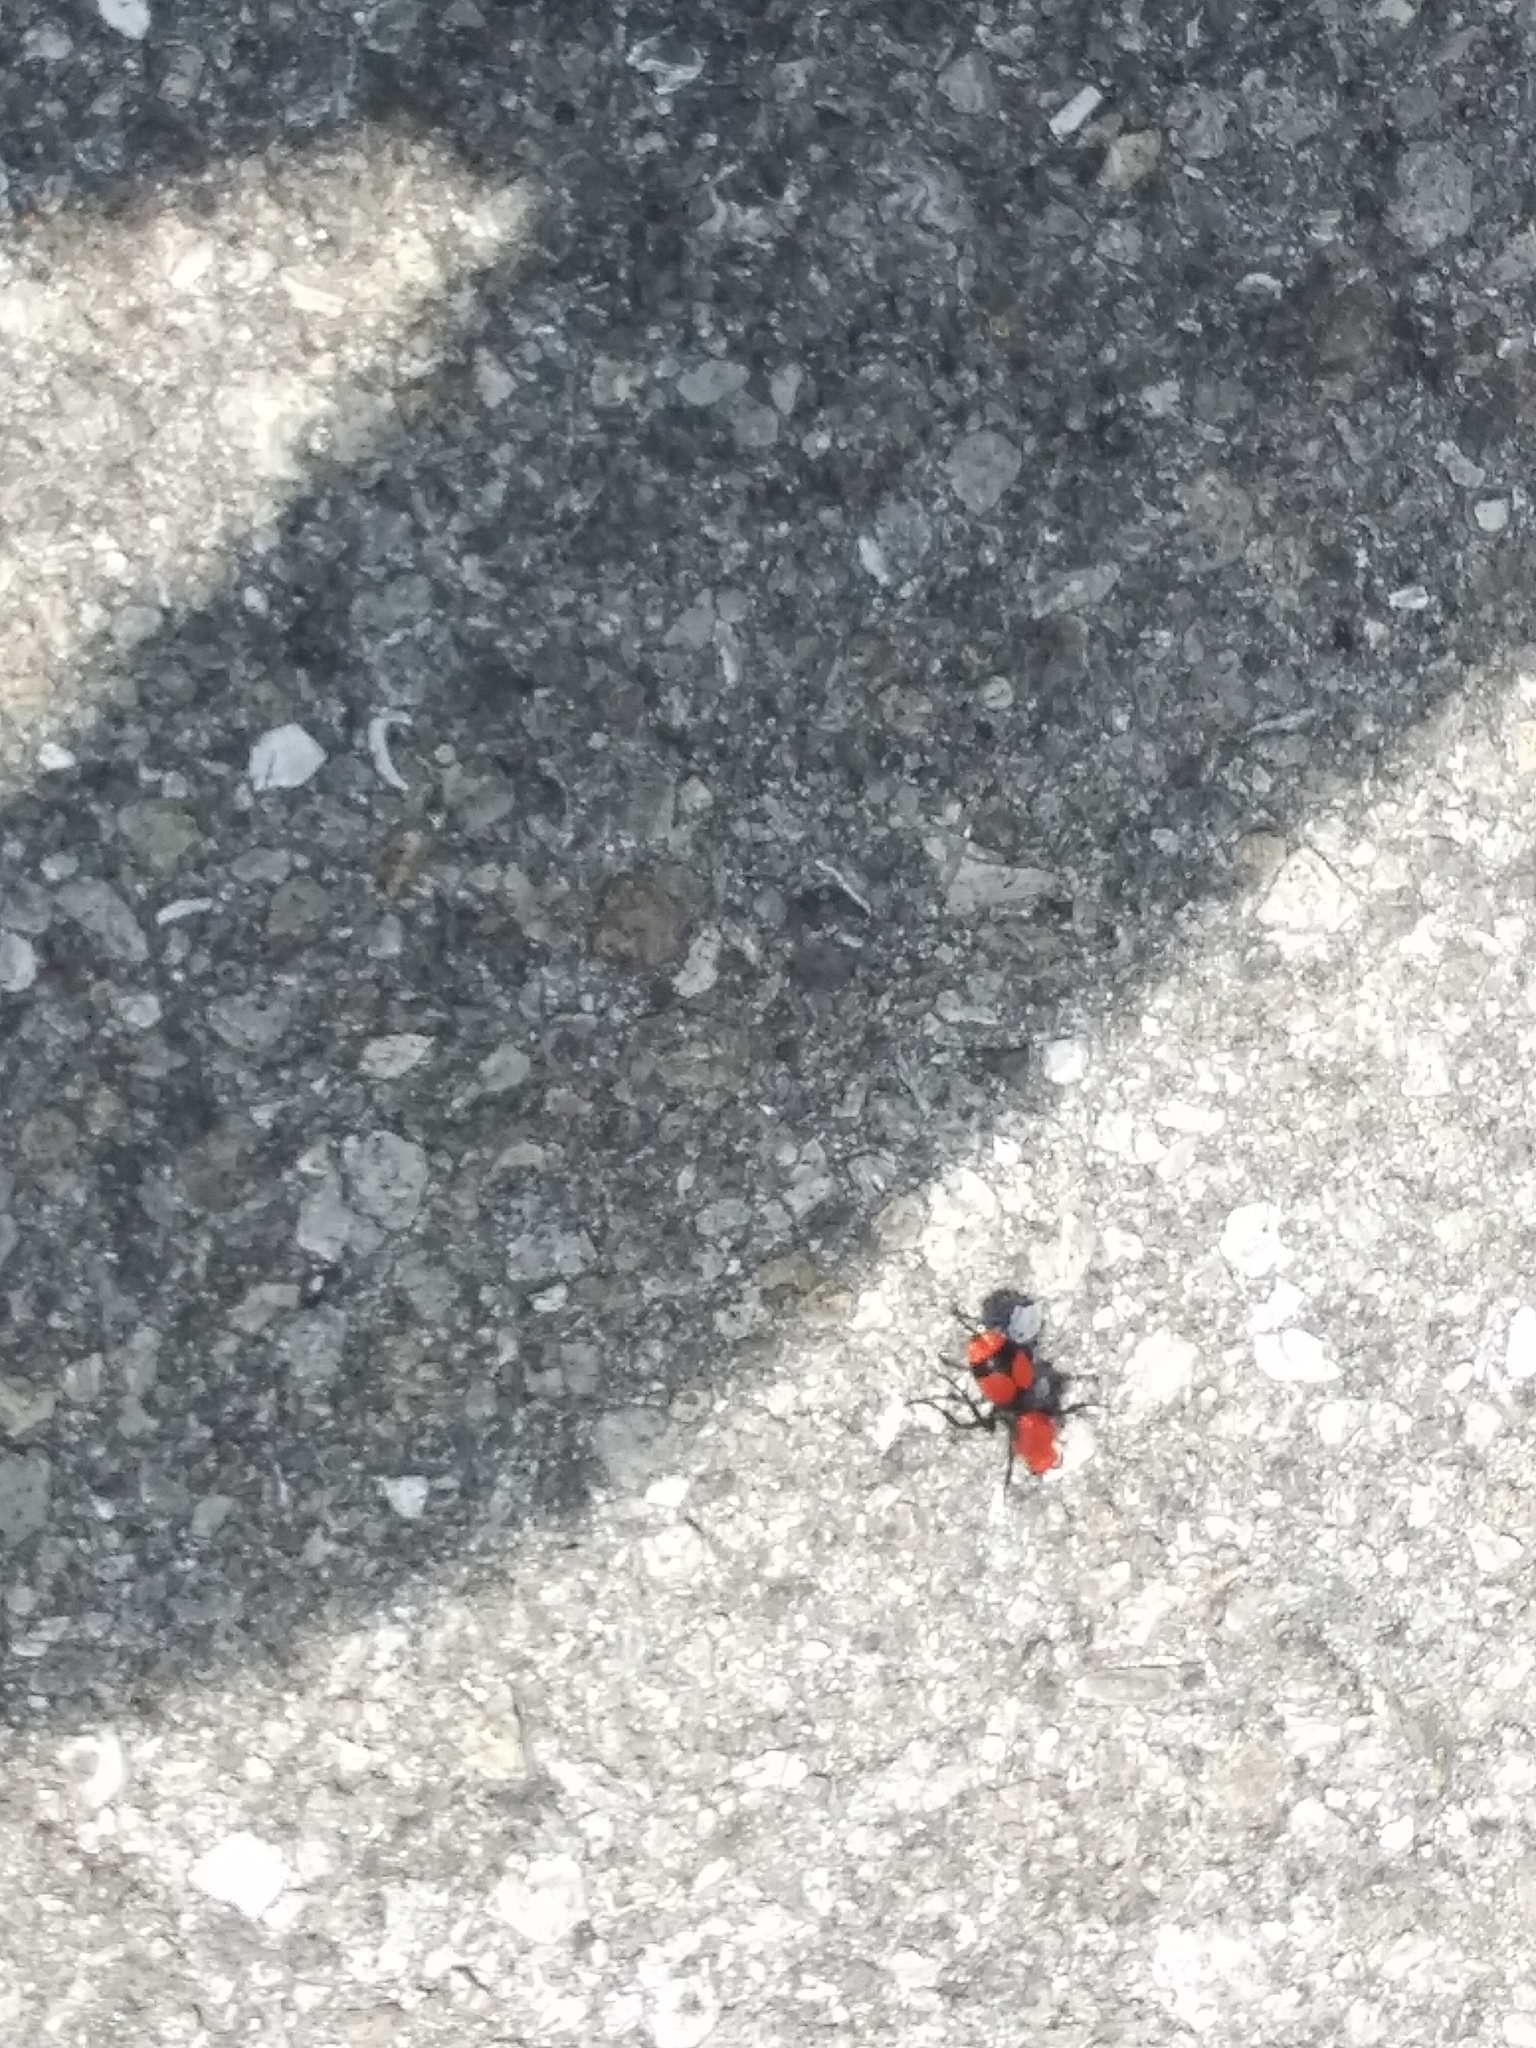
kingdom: Animalia
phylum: Arthropoda
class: Insecta
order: Hymenoptera
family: Mutillidae
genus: Dasymutilla
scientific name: Dasymutilla occidentalis
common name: Common eastern velvet ant
